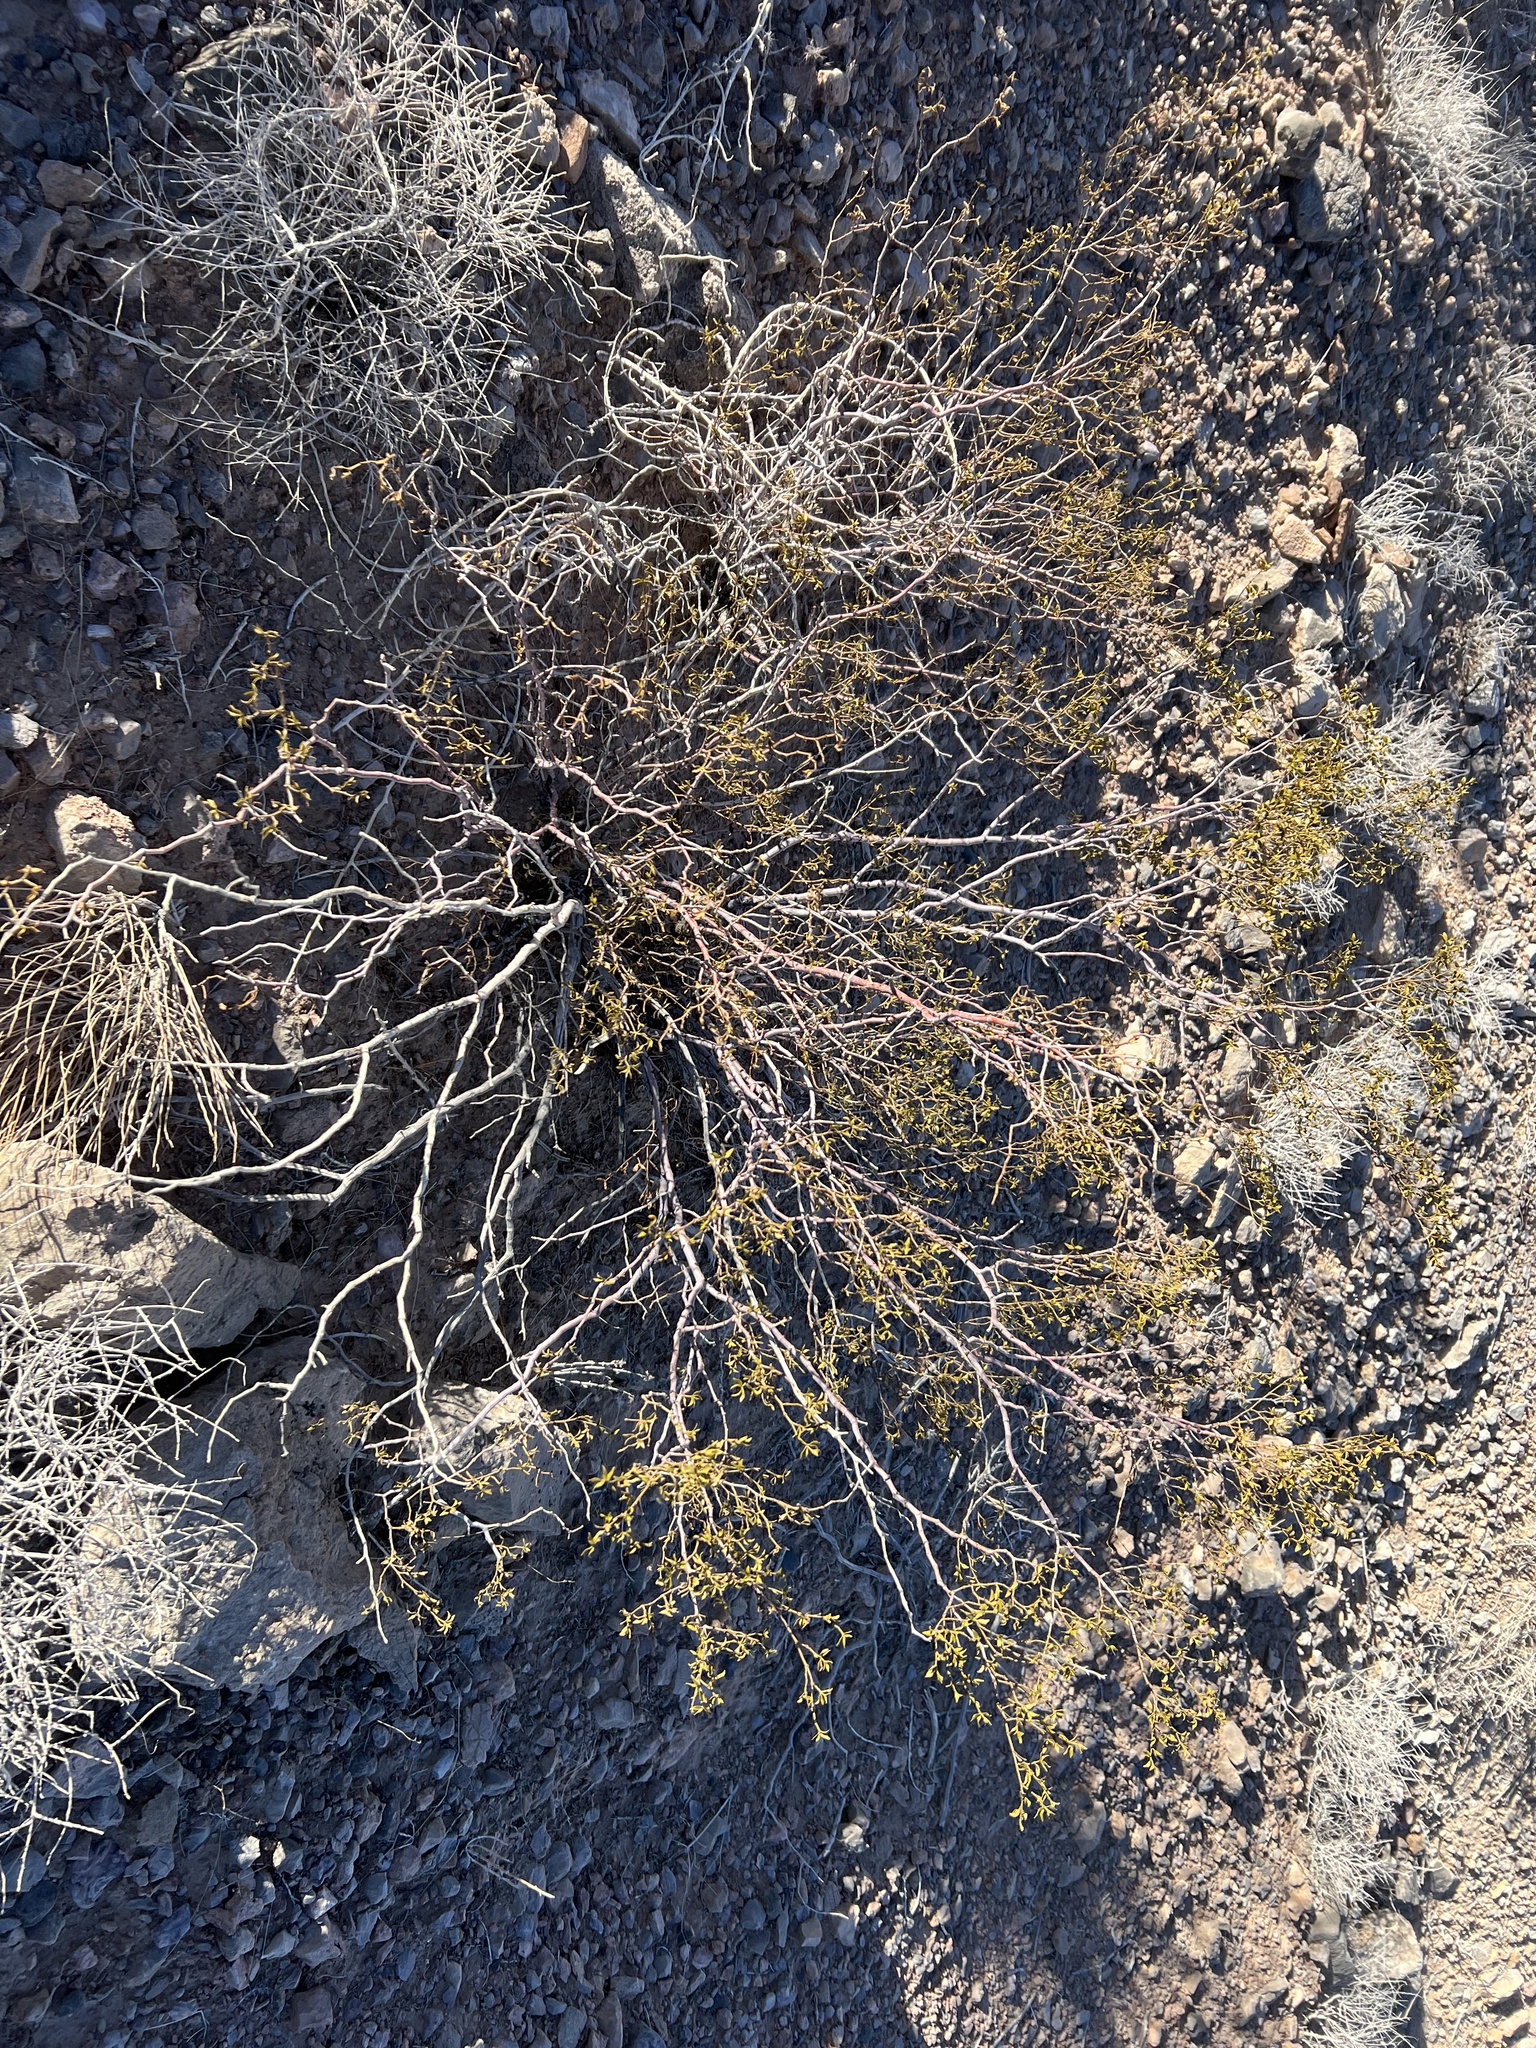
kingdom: Plantae
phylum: Tracheophyta
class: Magnoliopsida
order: Zygophyllales
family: Zygophyllaceae
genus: Larrea
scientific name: Larrea tridentata
